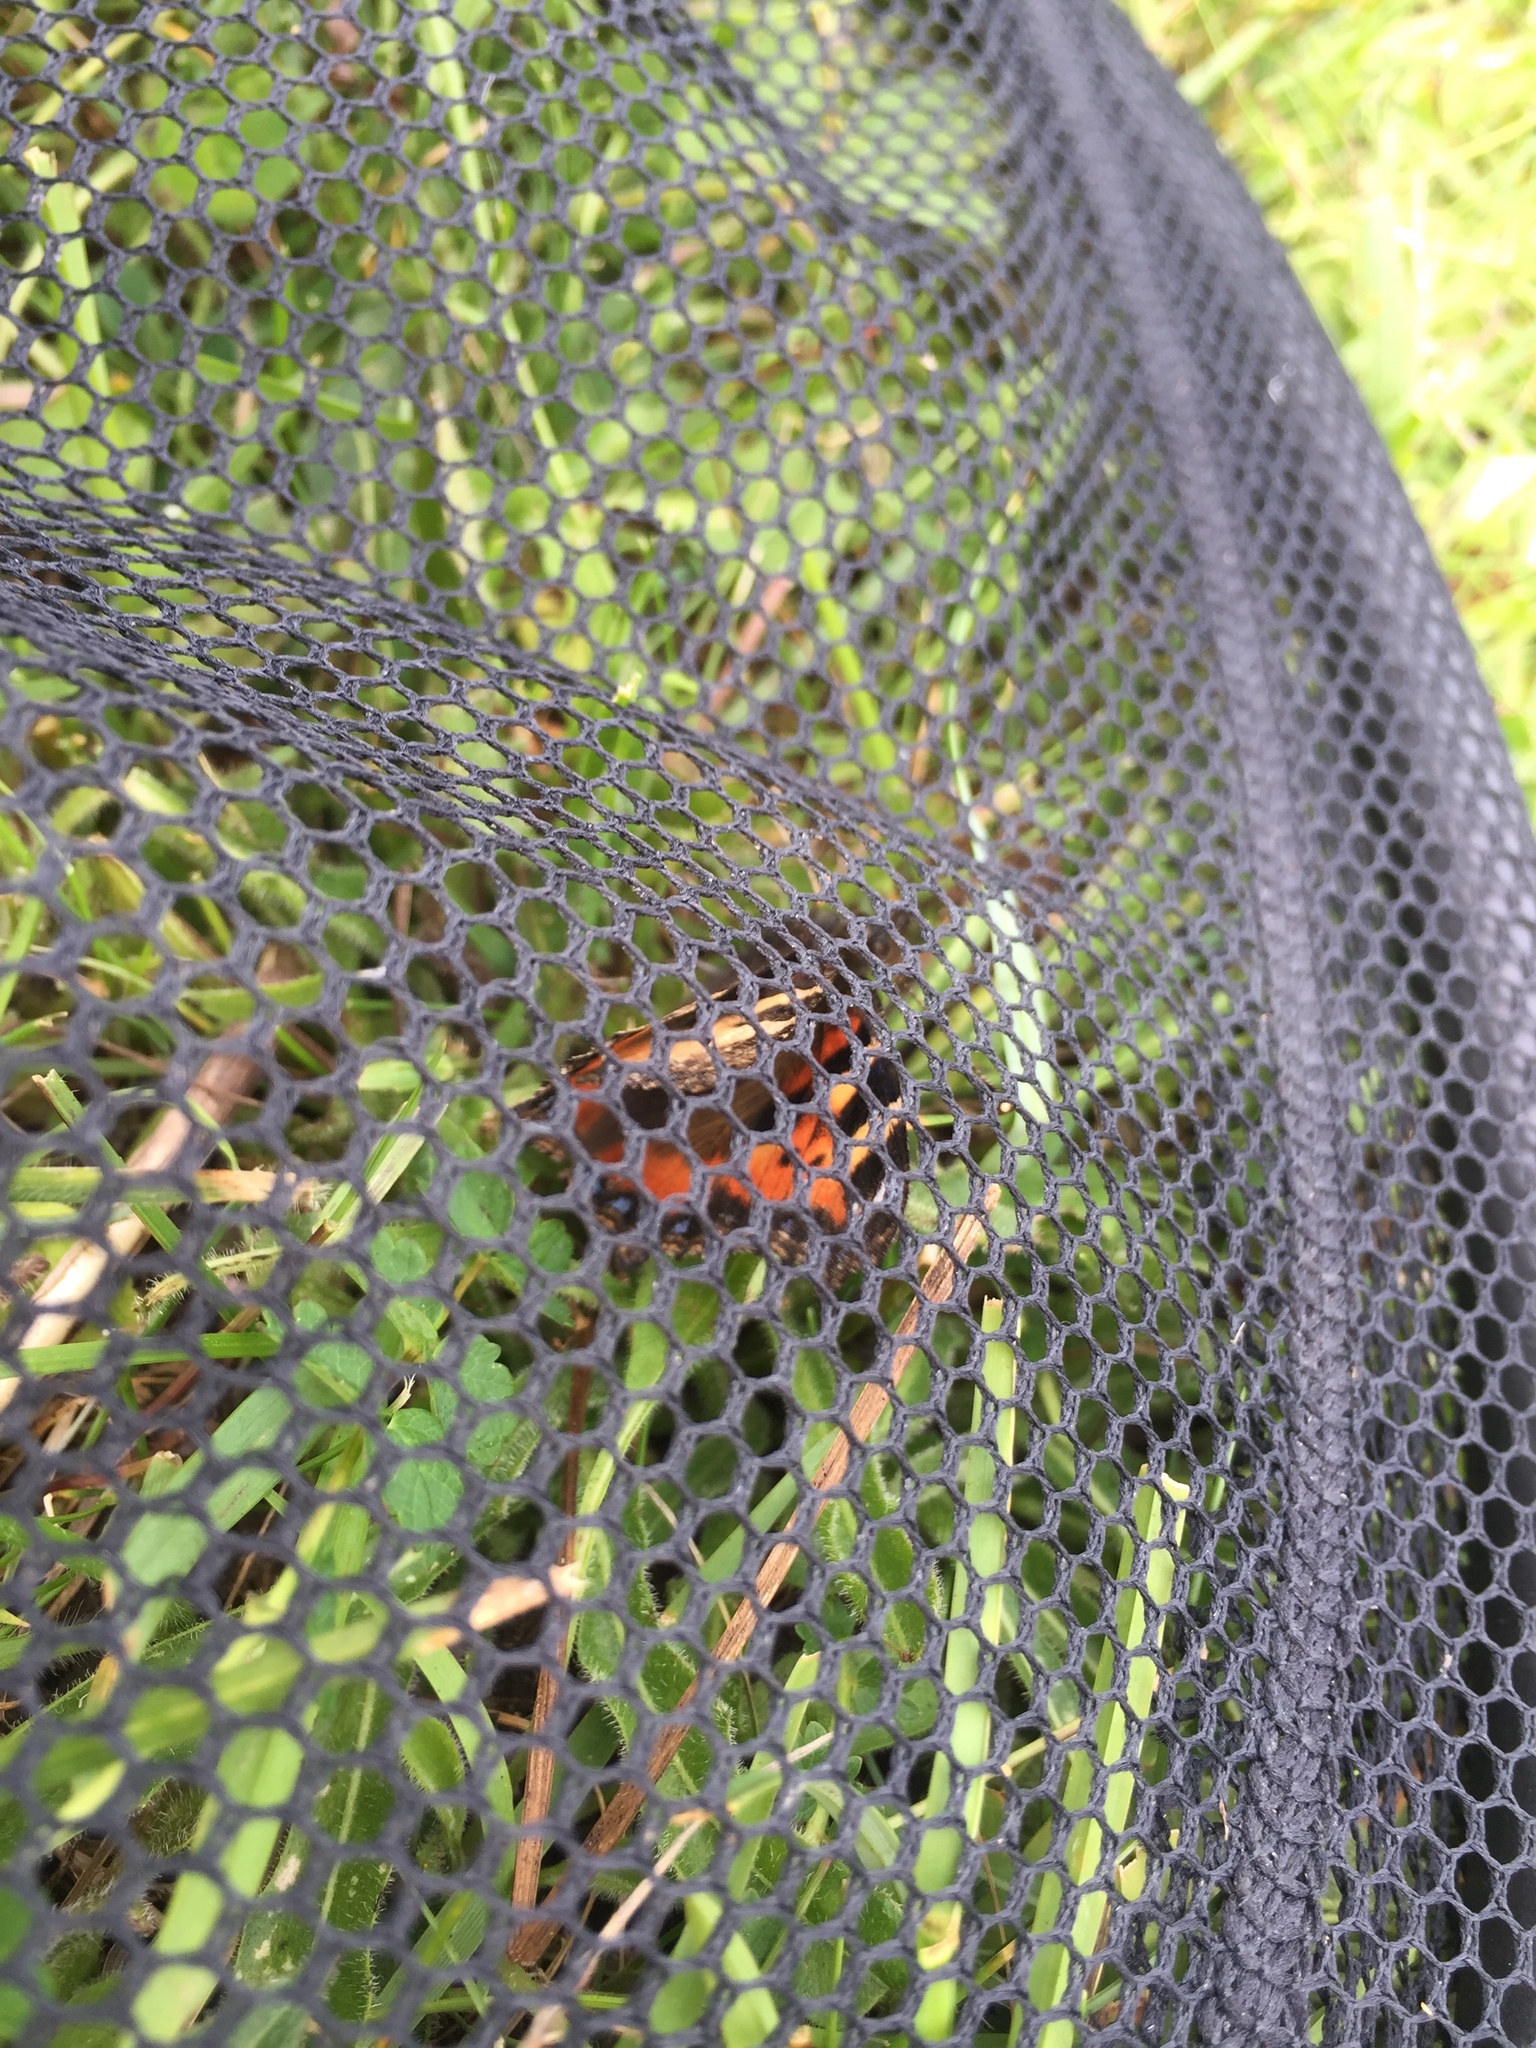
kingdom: Animalia
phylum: Arthropoda
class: Insecta
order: Lepidoptera
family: Nymphalidae
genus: Aglais
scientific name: Aglais urticae
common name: Small tortoiseshell
